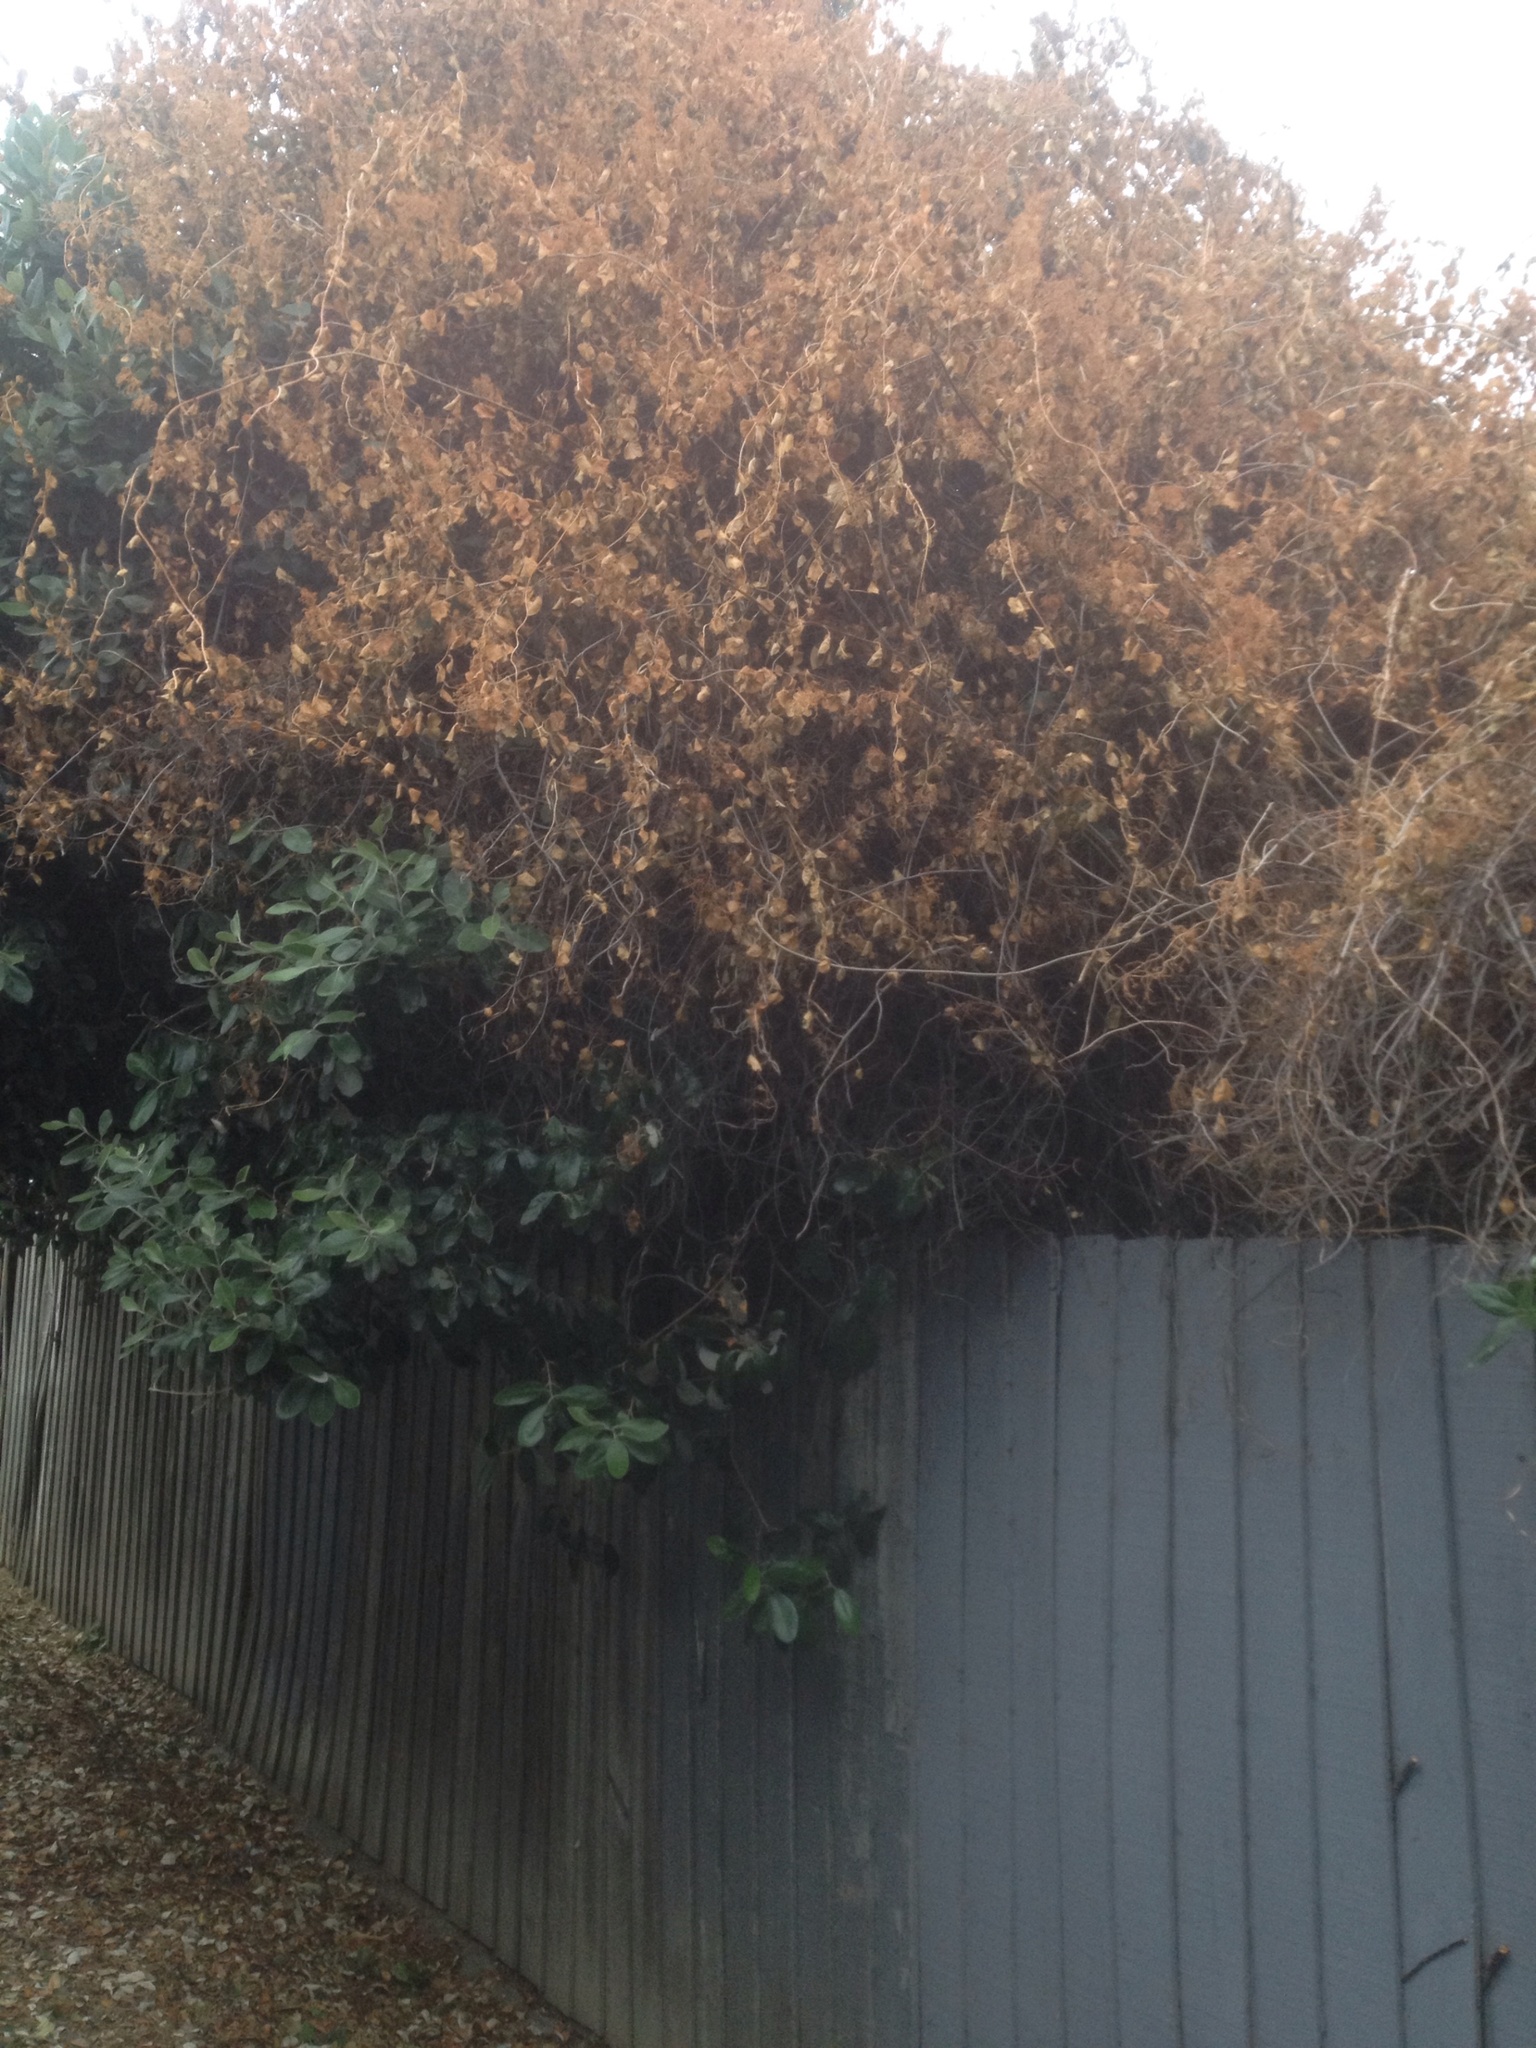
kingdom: Plantae
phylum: Tracheophyta
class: Magnoliopsida
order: Caryophyllales
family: Polygonaceae
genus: Muehlenbeckia
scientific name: Muehlenbeckia australis
